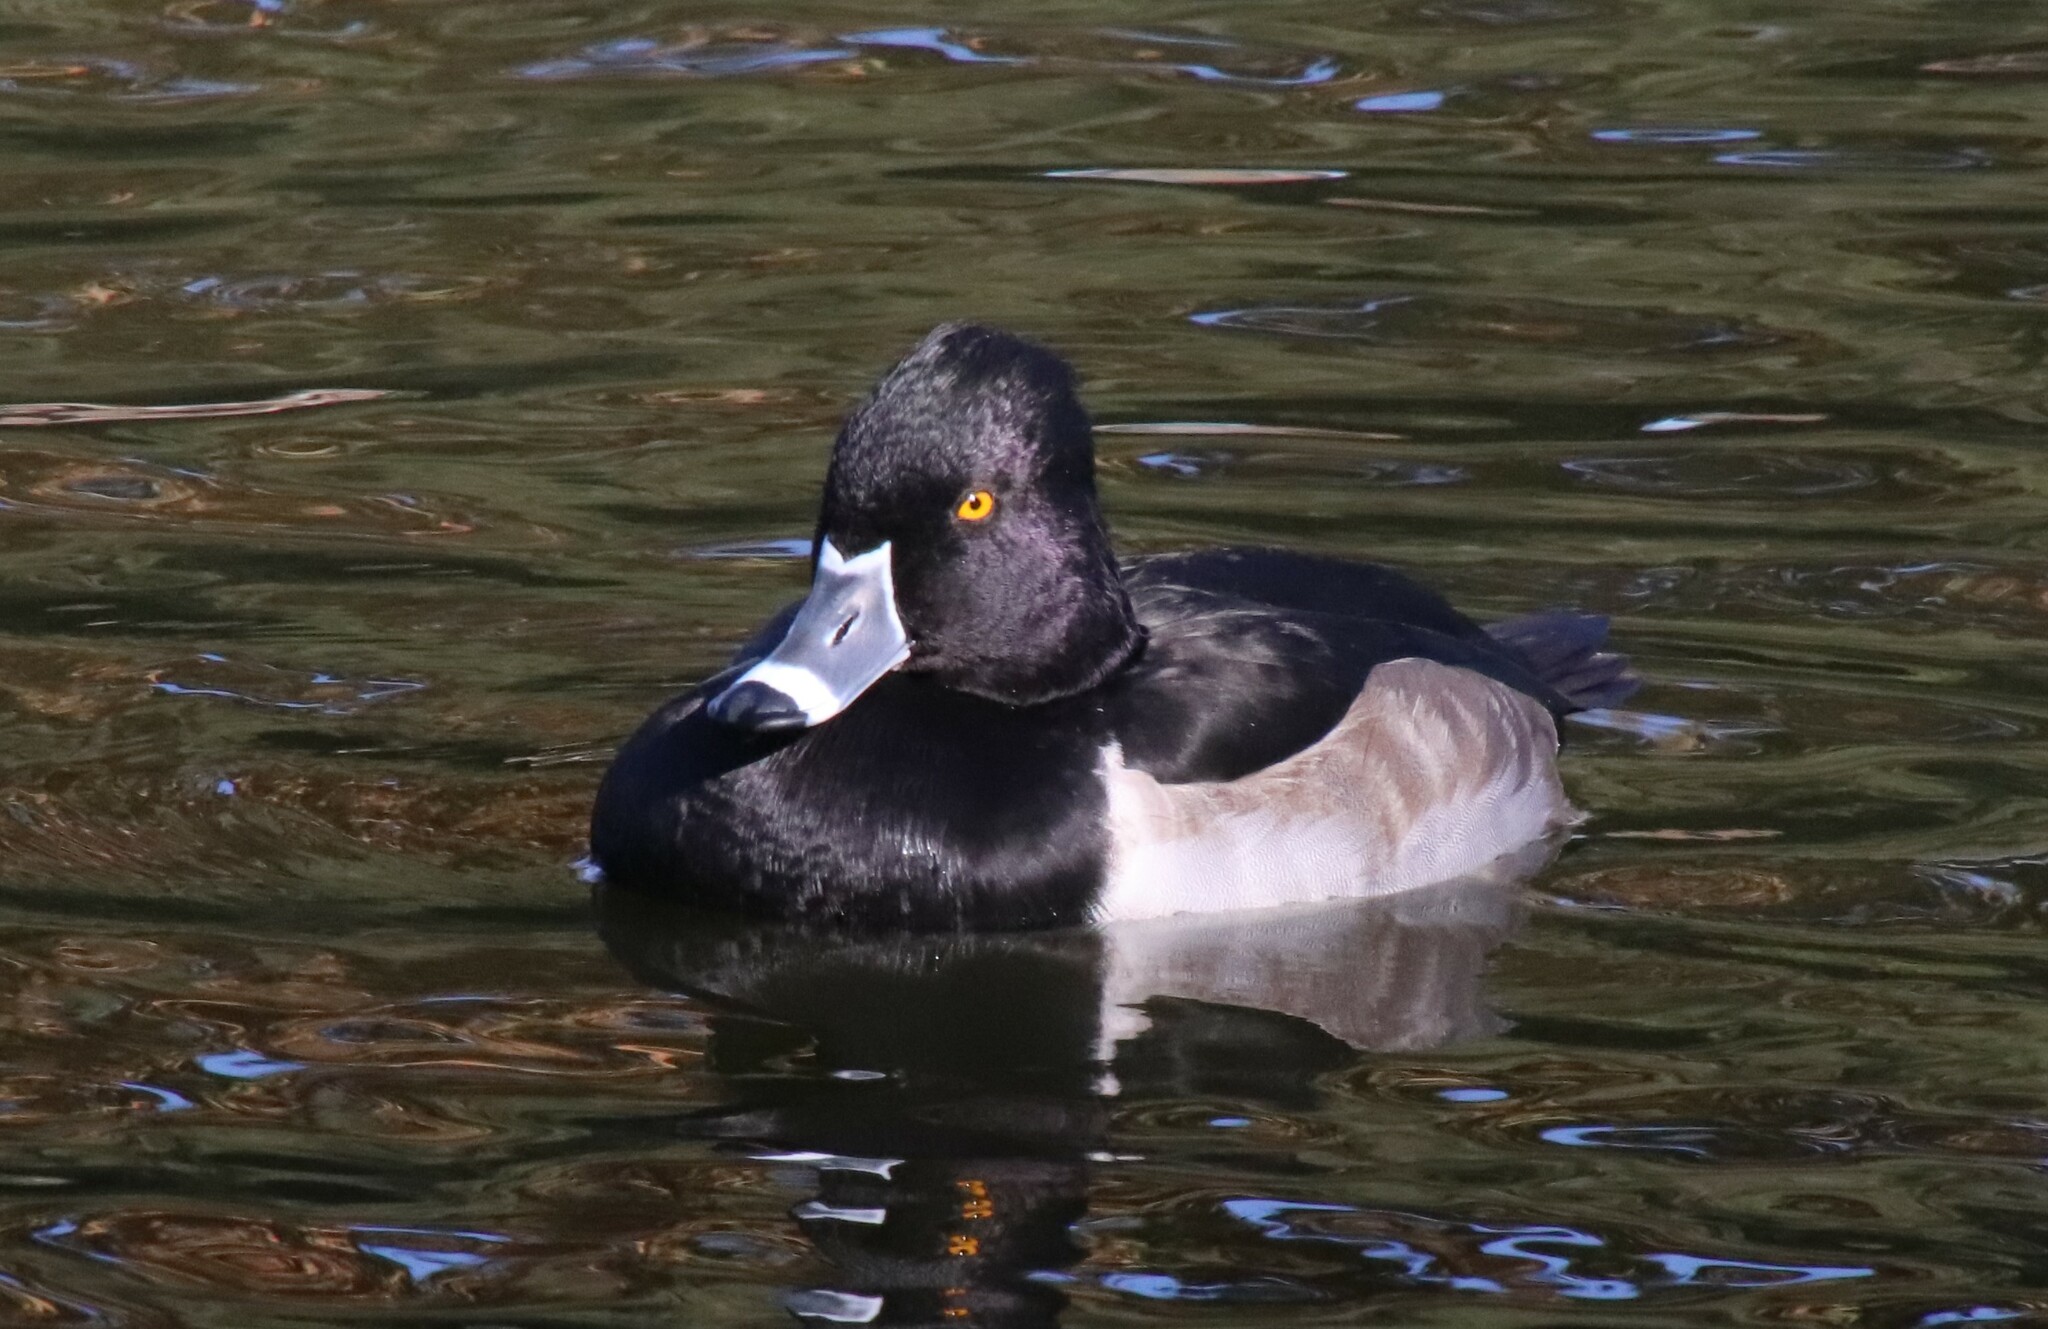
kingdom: Animalia
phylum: Chordata
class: Aves
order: Anseriformes
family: Anatidae
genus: Aythya
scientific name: Aythya collaris
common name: Ring-necked duck
